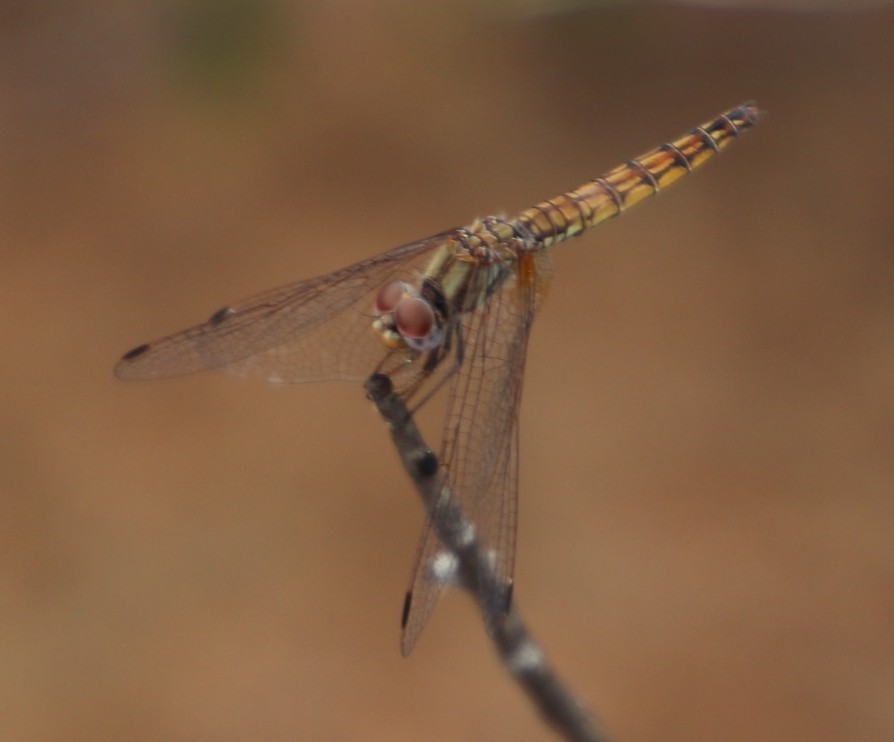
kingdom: Animalia
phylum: Arthropoda
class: Insecta
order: Odonata
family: Libellulidae
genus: Trithemis
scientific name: Trithemis kirbyi
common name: Kirby's dropwing
